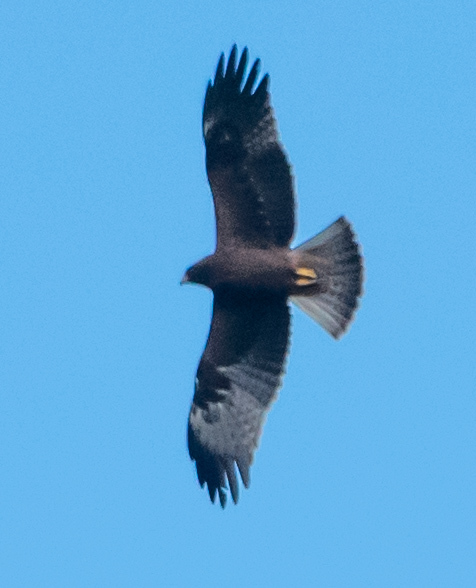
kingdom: Animalia
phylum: Chordata
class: Aves
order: Accipitriformes
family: Accipitridae
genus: Hieraaetus
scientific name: Hieraaetus pennatus
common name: Booted eagle
